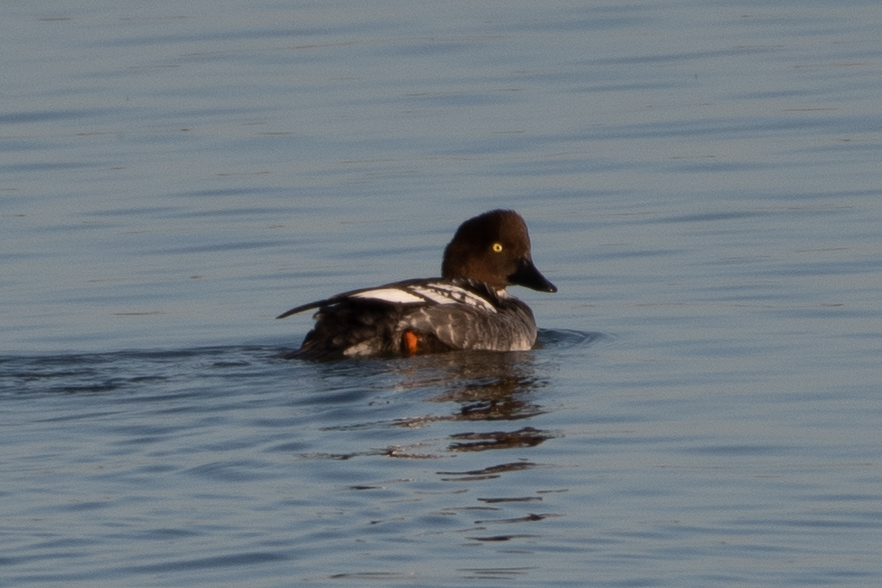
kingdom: Animalia
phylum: Chordata
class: Aves
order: Anseriformes
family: Anatidae
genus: Bucephala
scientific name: Bucephala clangula
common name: Common goldeneye
